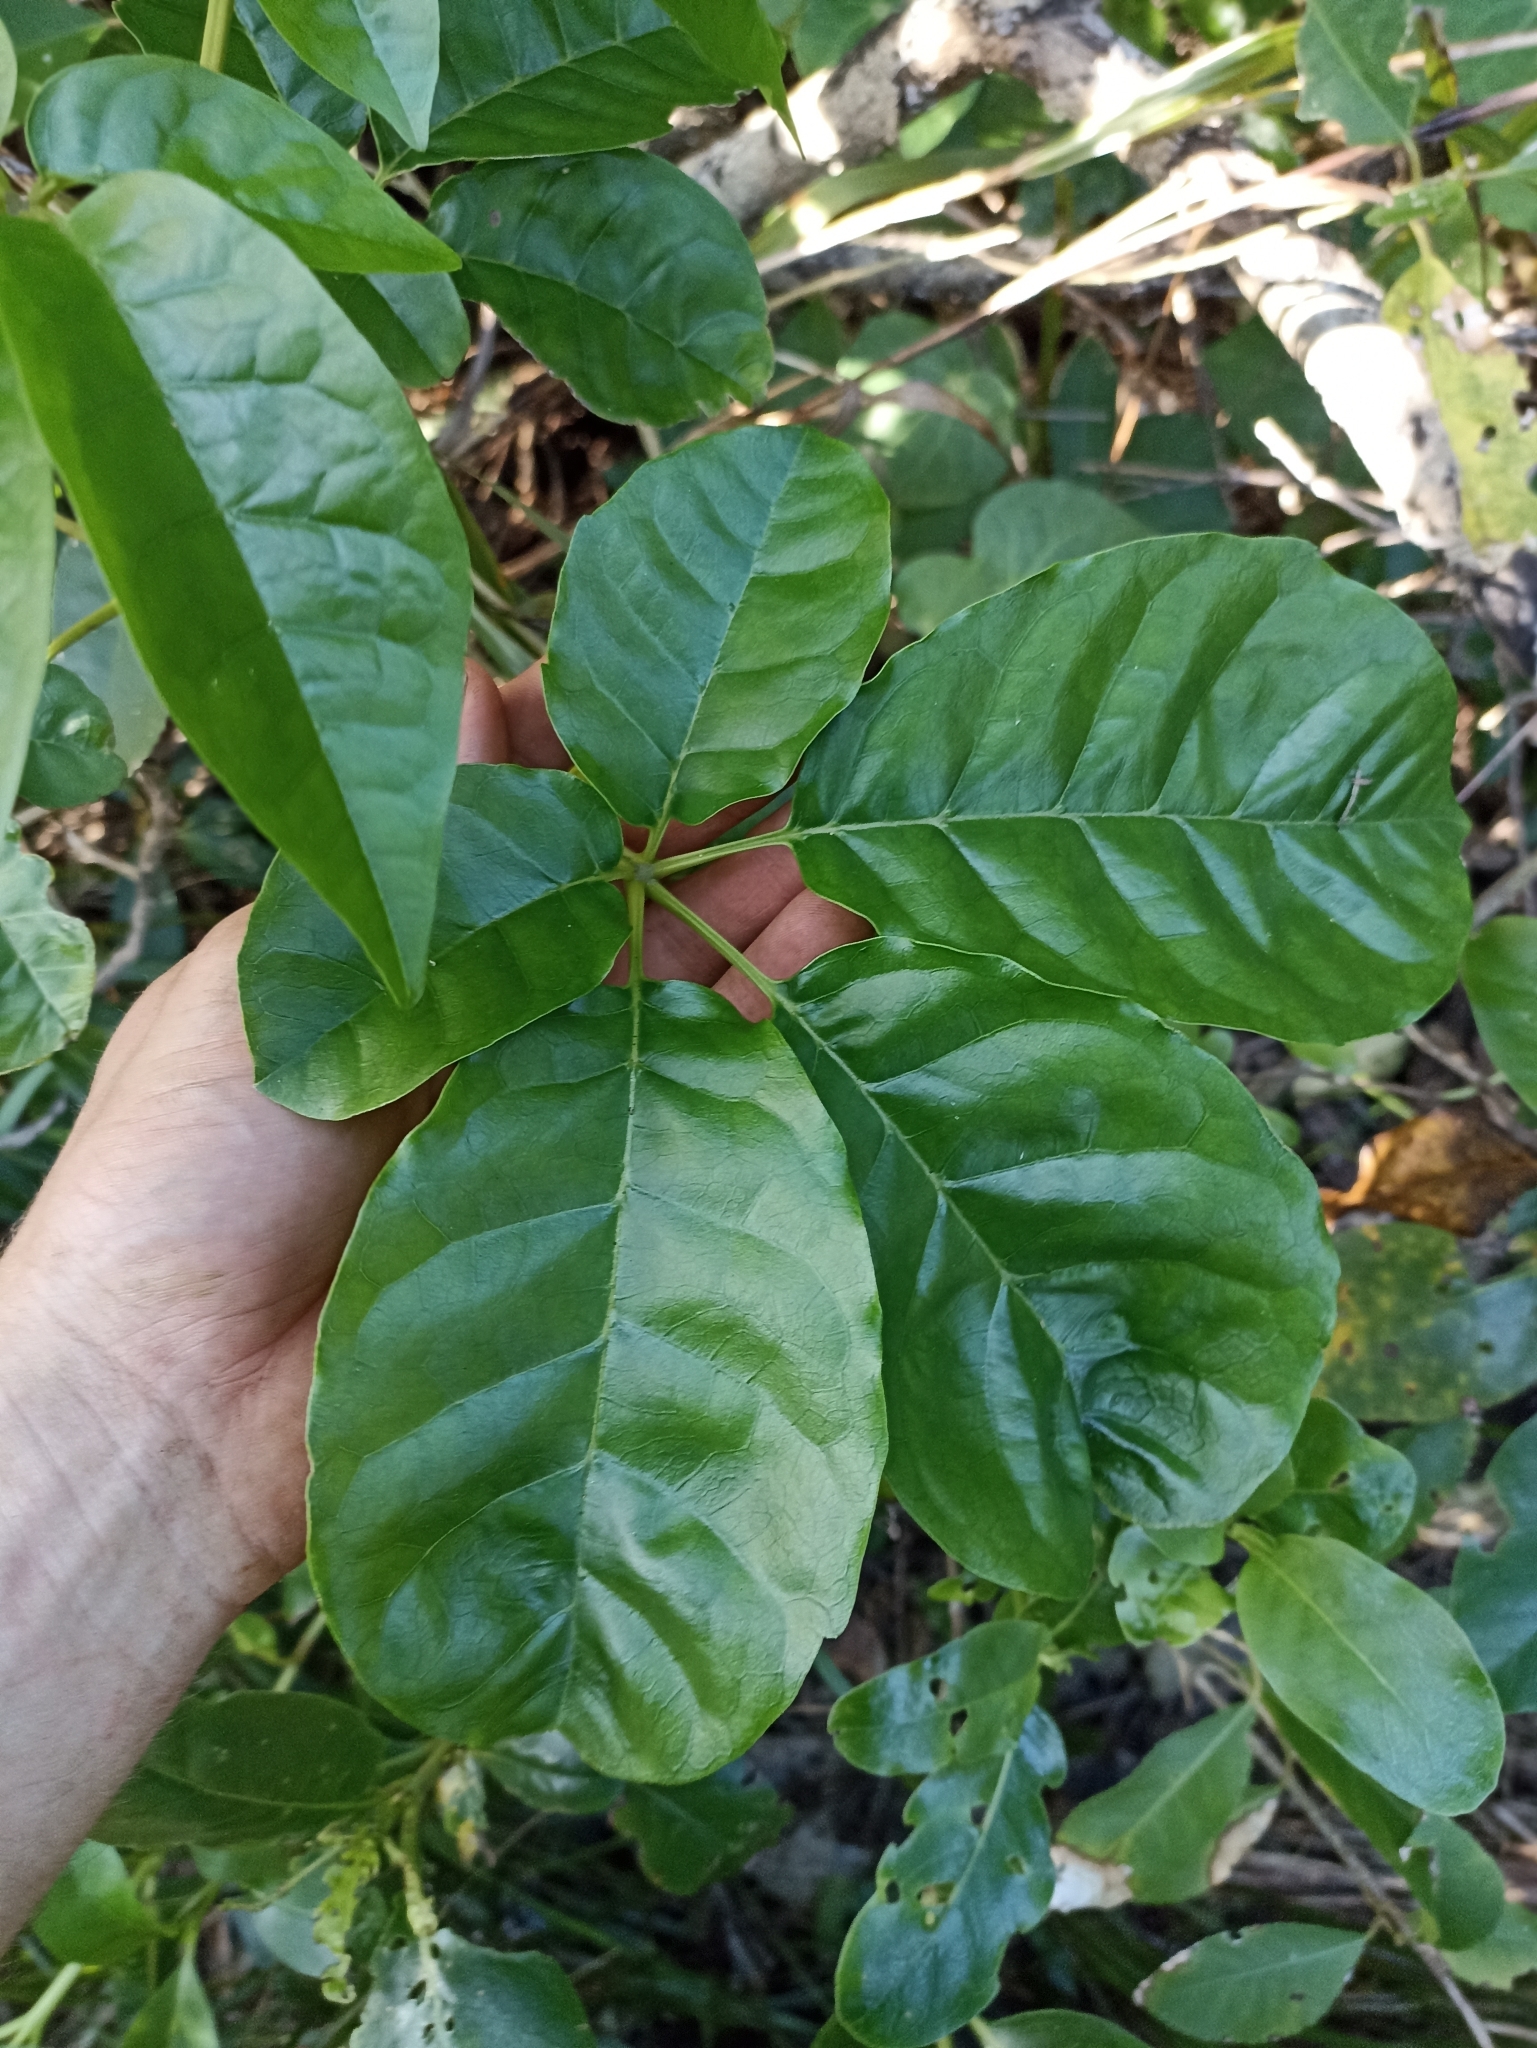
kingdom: Plantae
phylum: Tracheophyta
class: Magnoliopsida
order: Lamiales
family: Lamiaceae
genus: Vitex
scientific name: Vitex lucens
